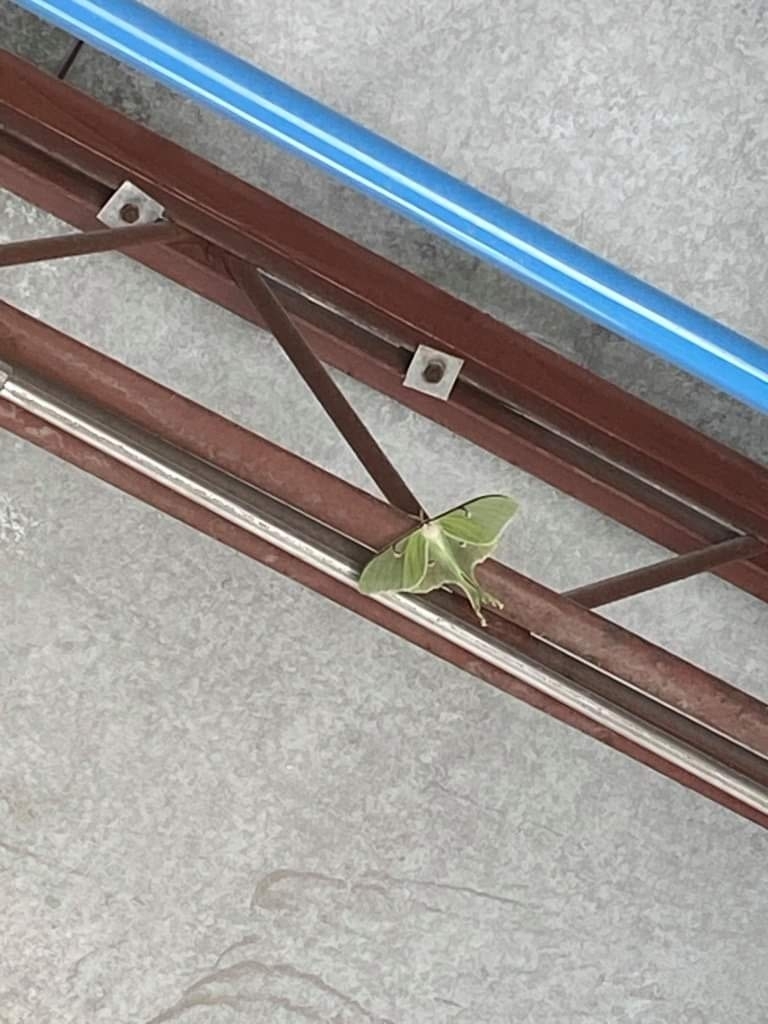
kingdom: Animalia
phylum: Arthropoda
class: Insecta
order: Lepidoptera
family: Saturniidae
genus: Actias
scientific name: Actias luna
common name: Luna moth
